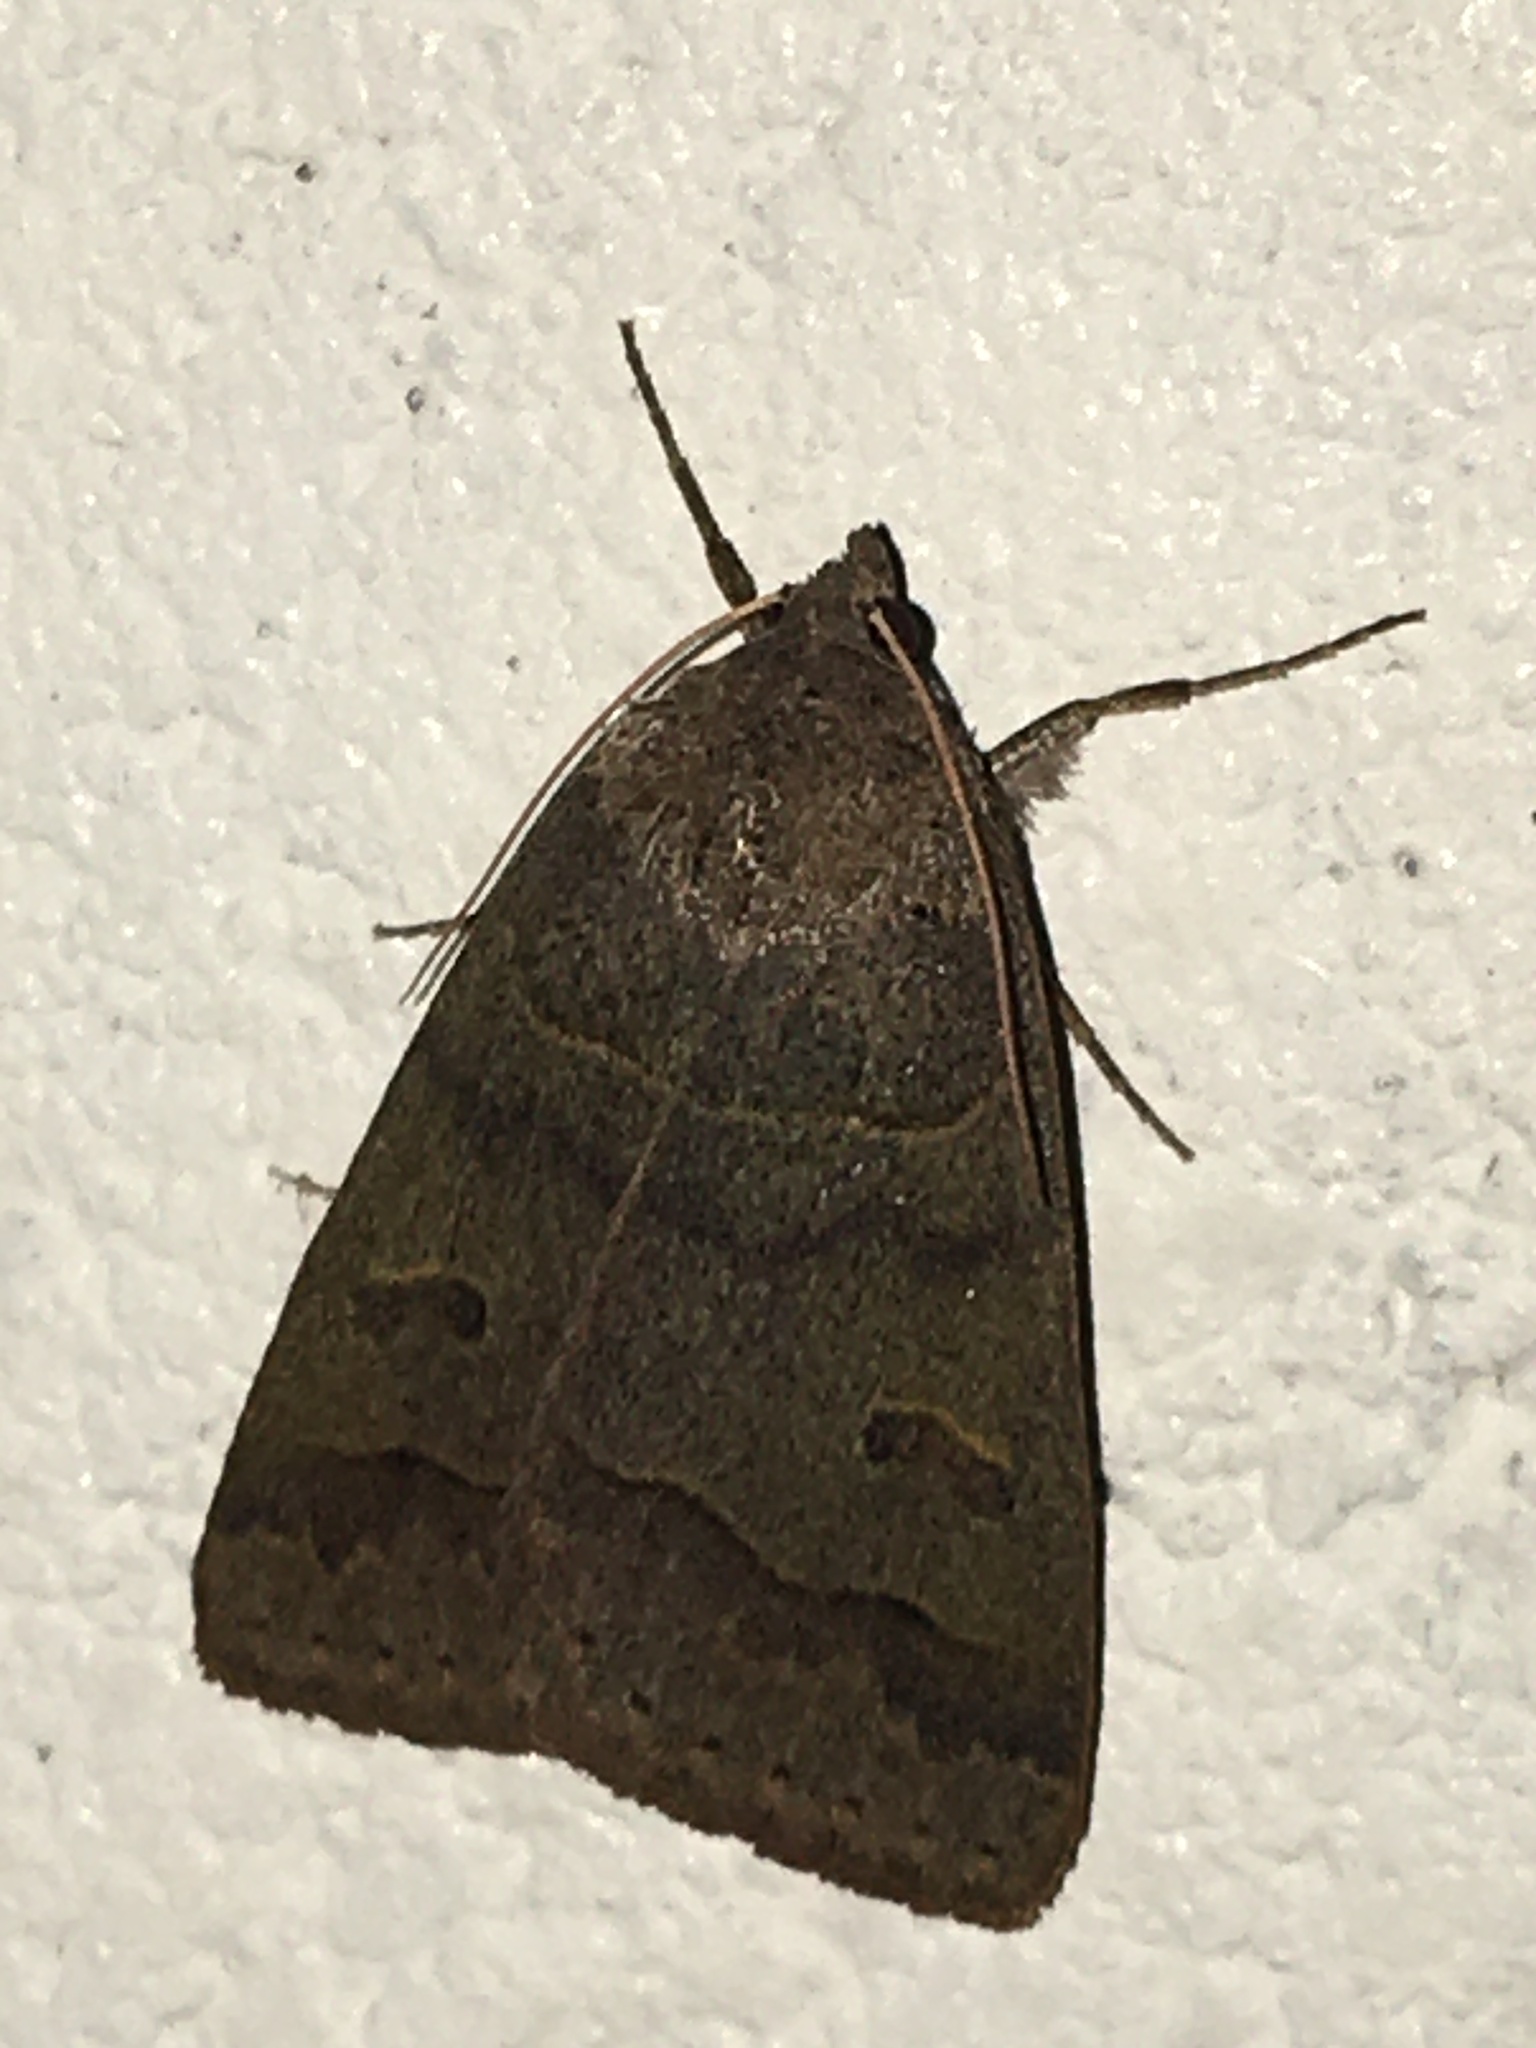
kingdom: Animalia
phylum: Arthropoda
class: Insecta
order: Lepidoptera
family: Erebidae
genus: Phoberia
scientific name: Phoberia atomaris
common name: Common oak moth
